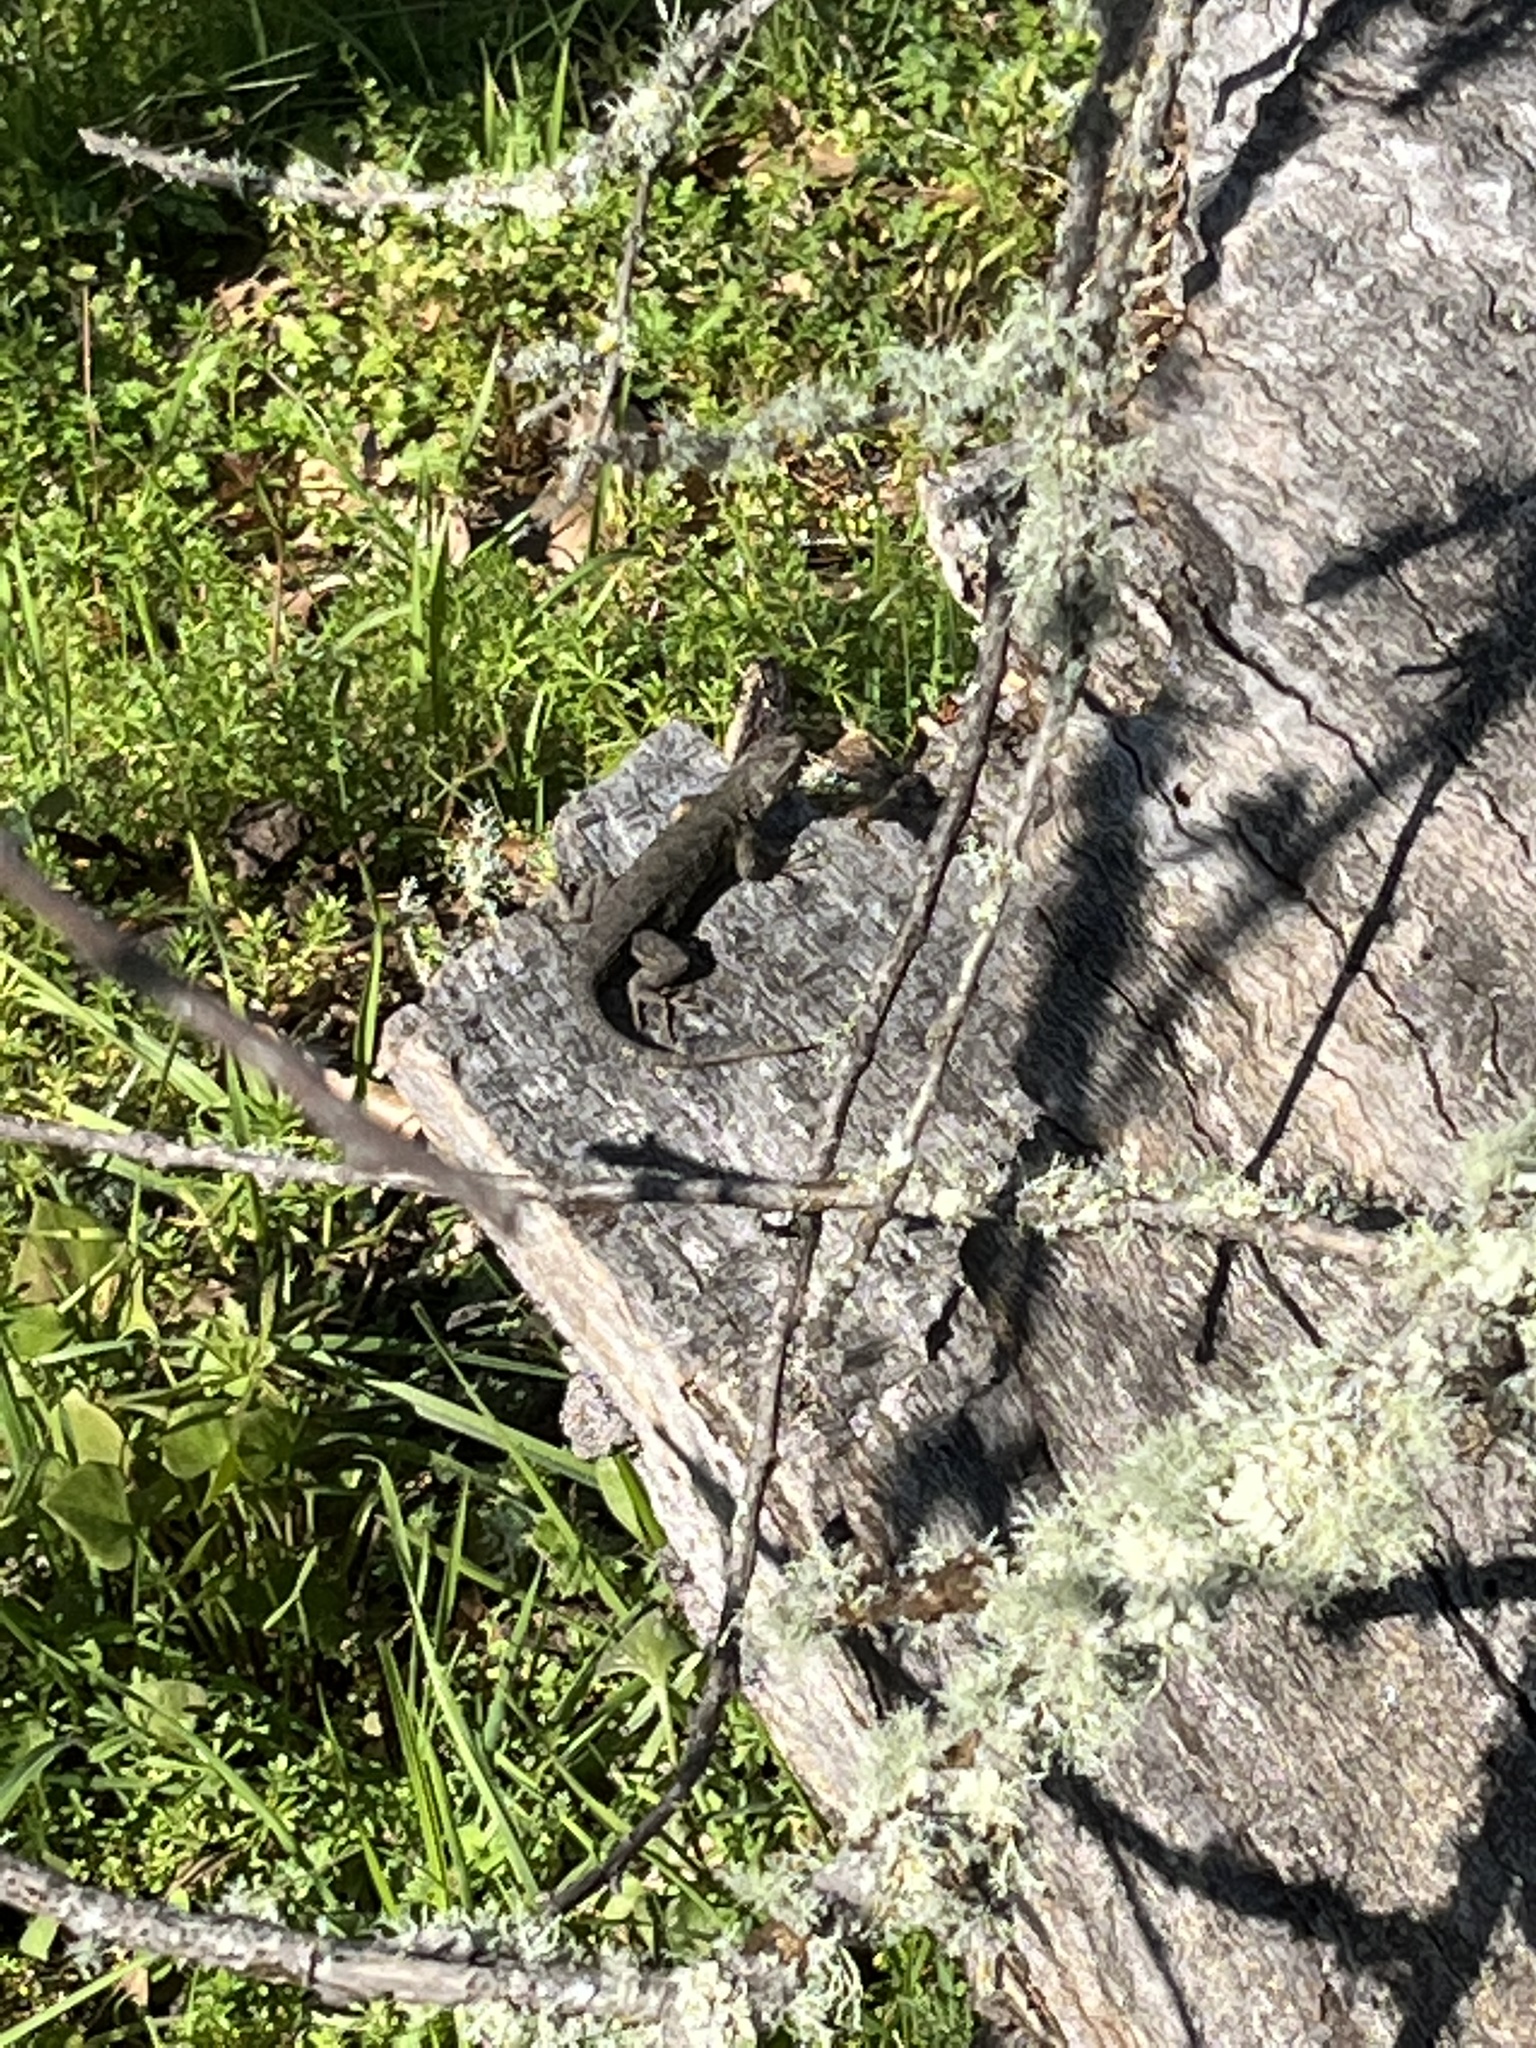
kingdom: Animalia
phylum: Chordata
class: Squamata
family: Phrynosomatidae
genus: Sceloporus
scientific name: Sceloporus occidentalis
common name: Western fence lizard
